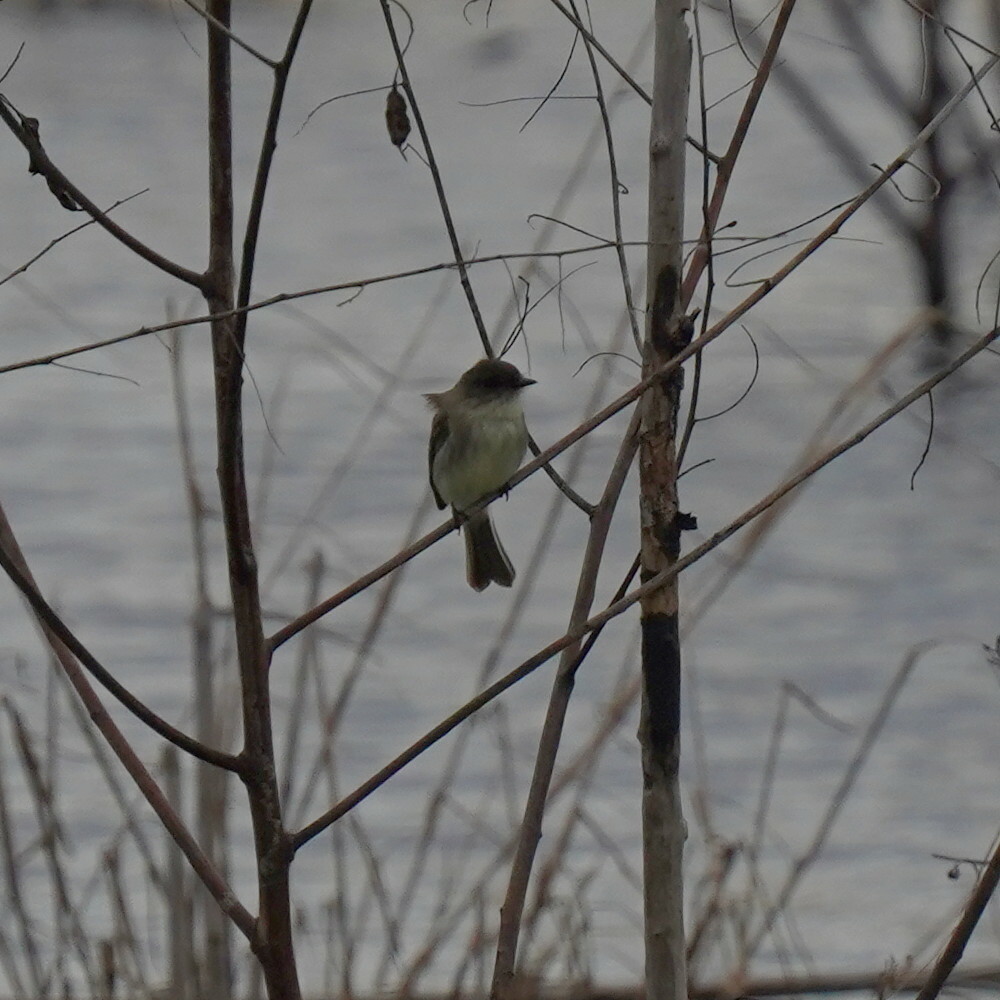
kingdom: Animalia
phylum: Chordata
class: Aves
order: Passeriformes
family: Tyrannidae
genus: Sayornis
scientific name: Sayornis phoebe
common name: Eastern phoebe
